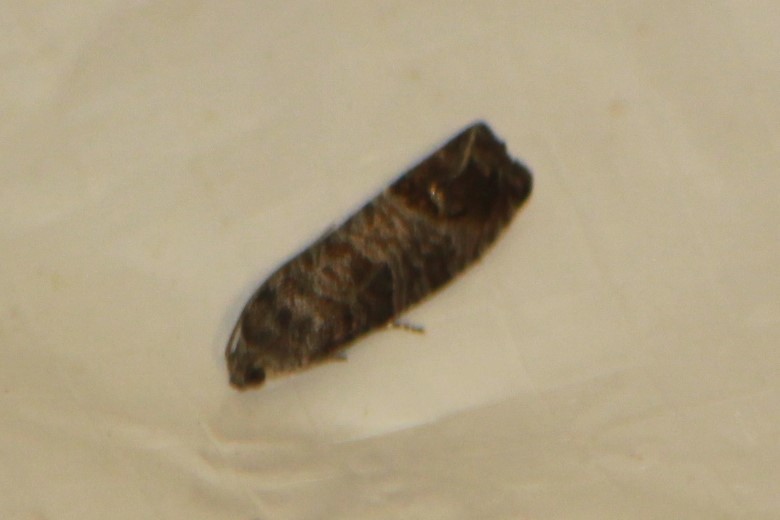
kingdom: Animalia
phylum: Arthropoda
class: Insecta
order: Lepidoptera
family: Tortricidae
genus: Cydia
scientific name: Cydia pomonella
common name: Codling moth
